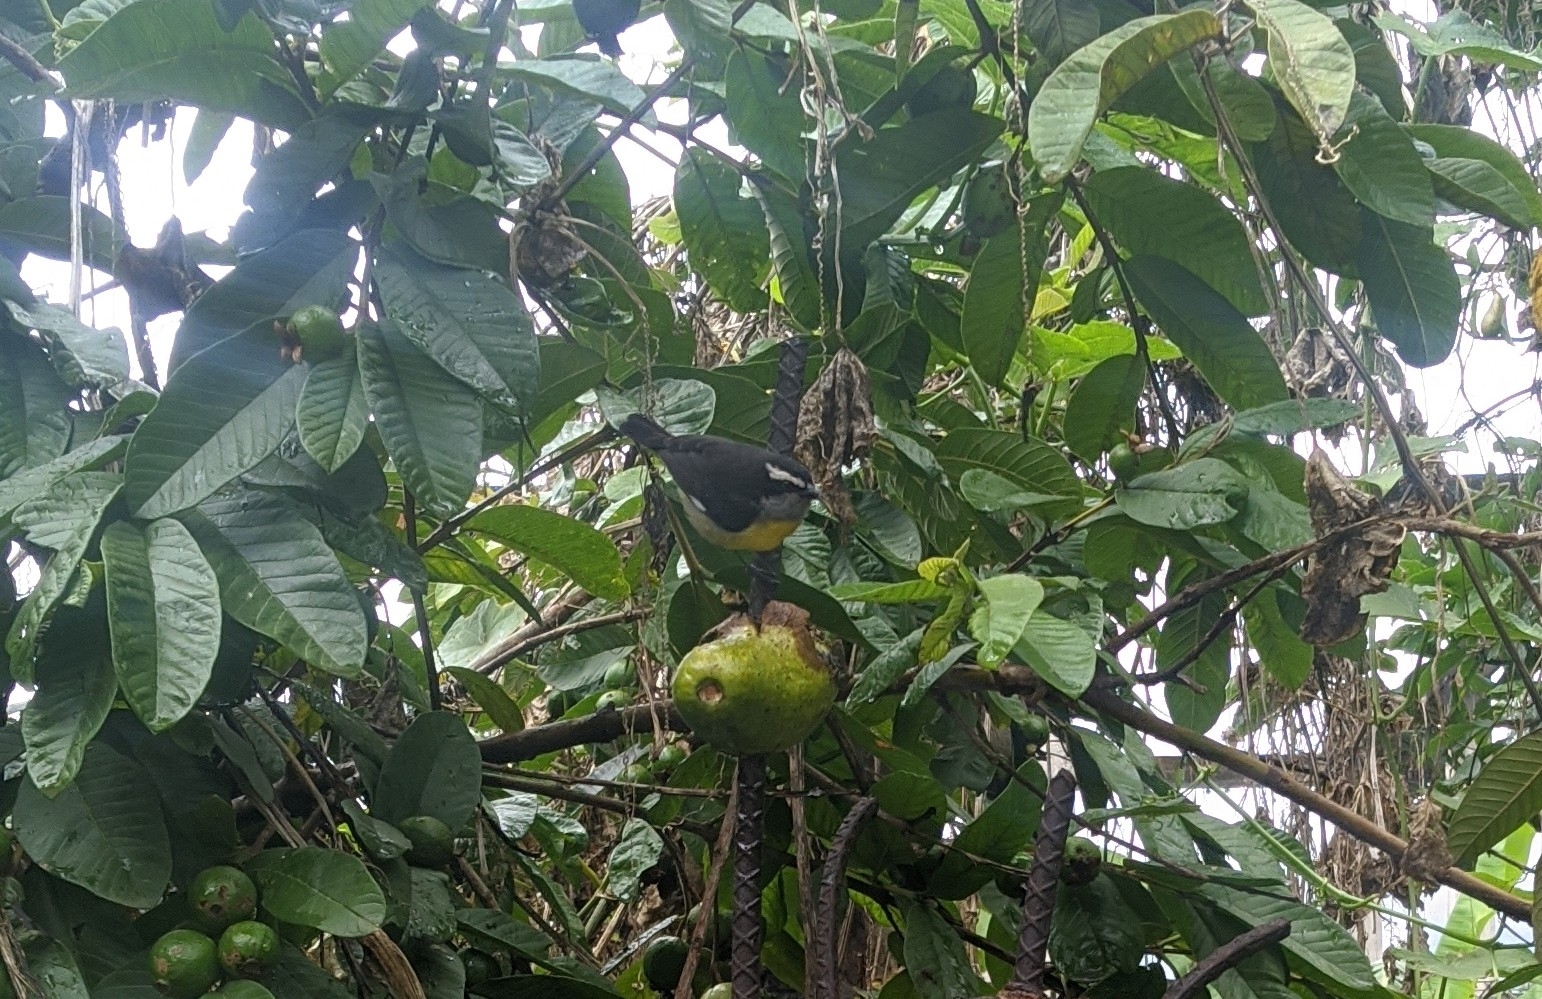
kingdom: Animalia
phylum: Chordata
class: Aves
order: Passeriformes
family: Thraupidae
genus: Coereba
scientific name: Coereba flaveola
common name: Bananaquit
